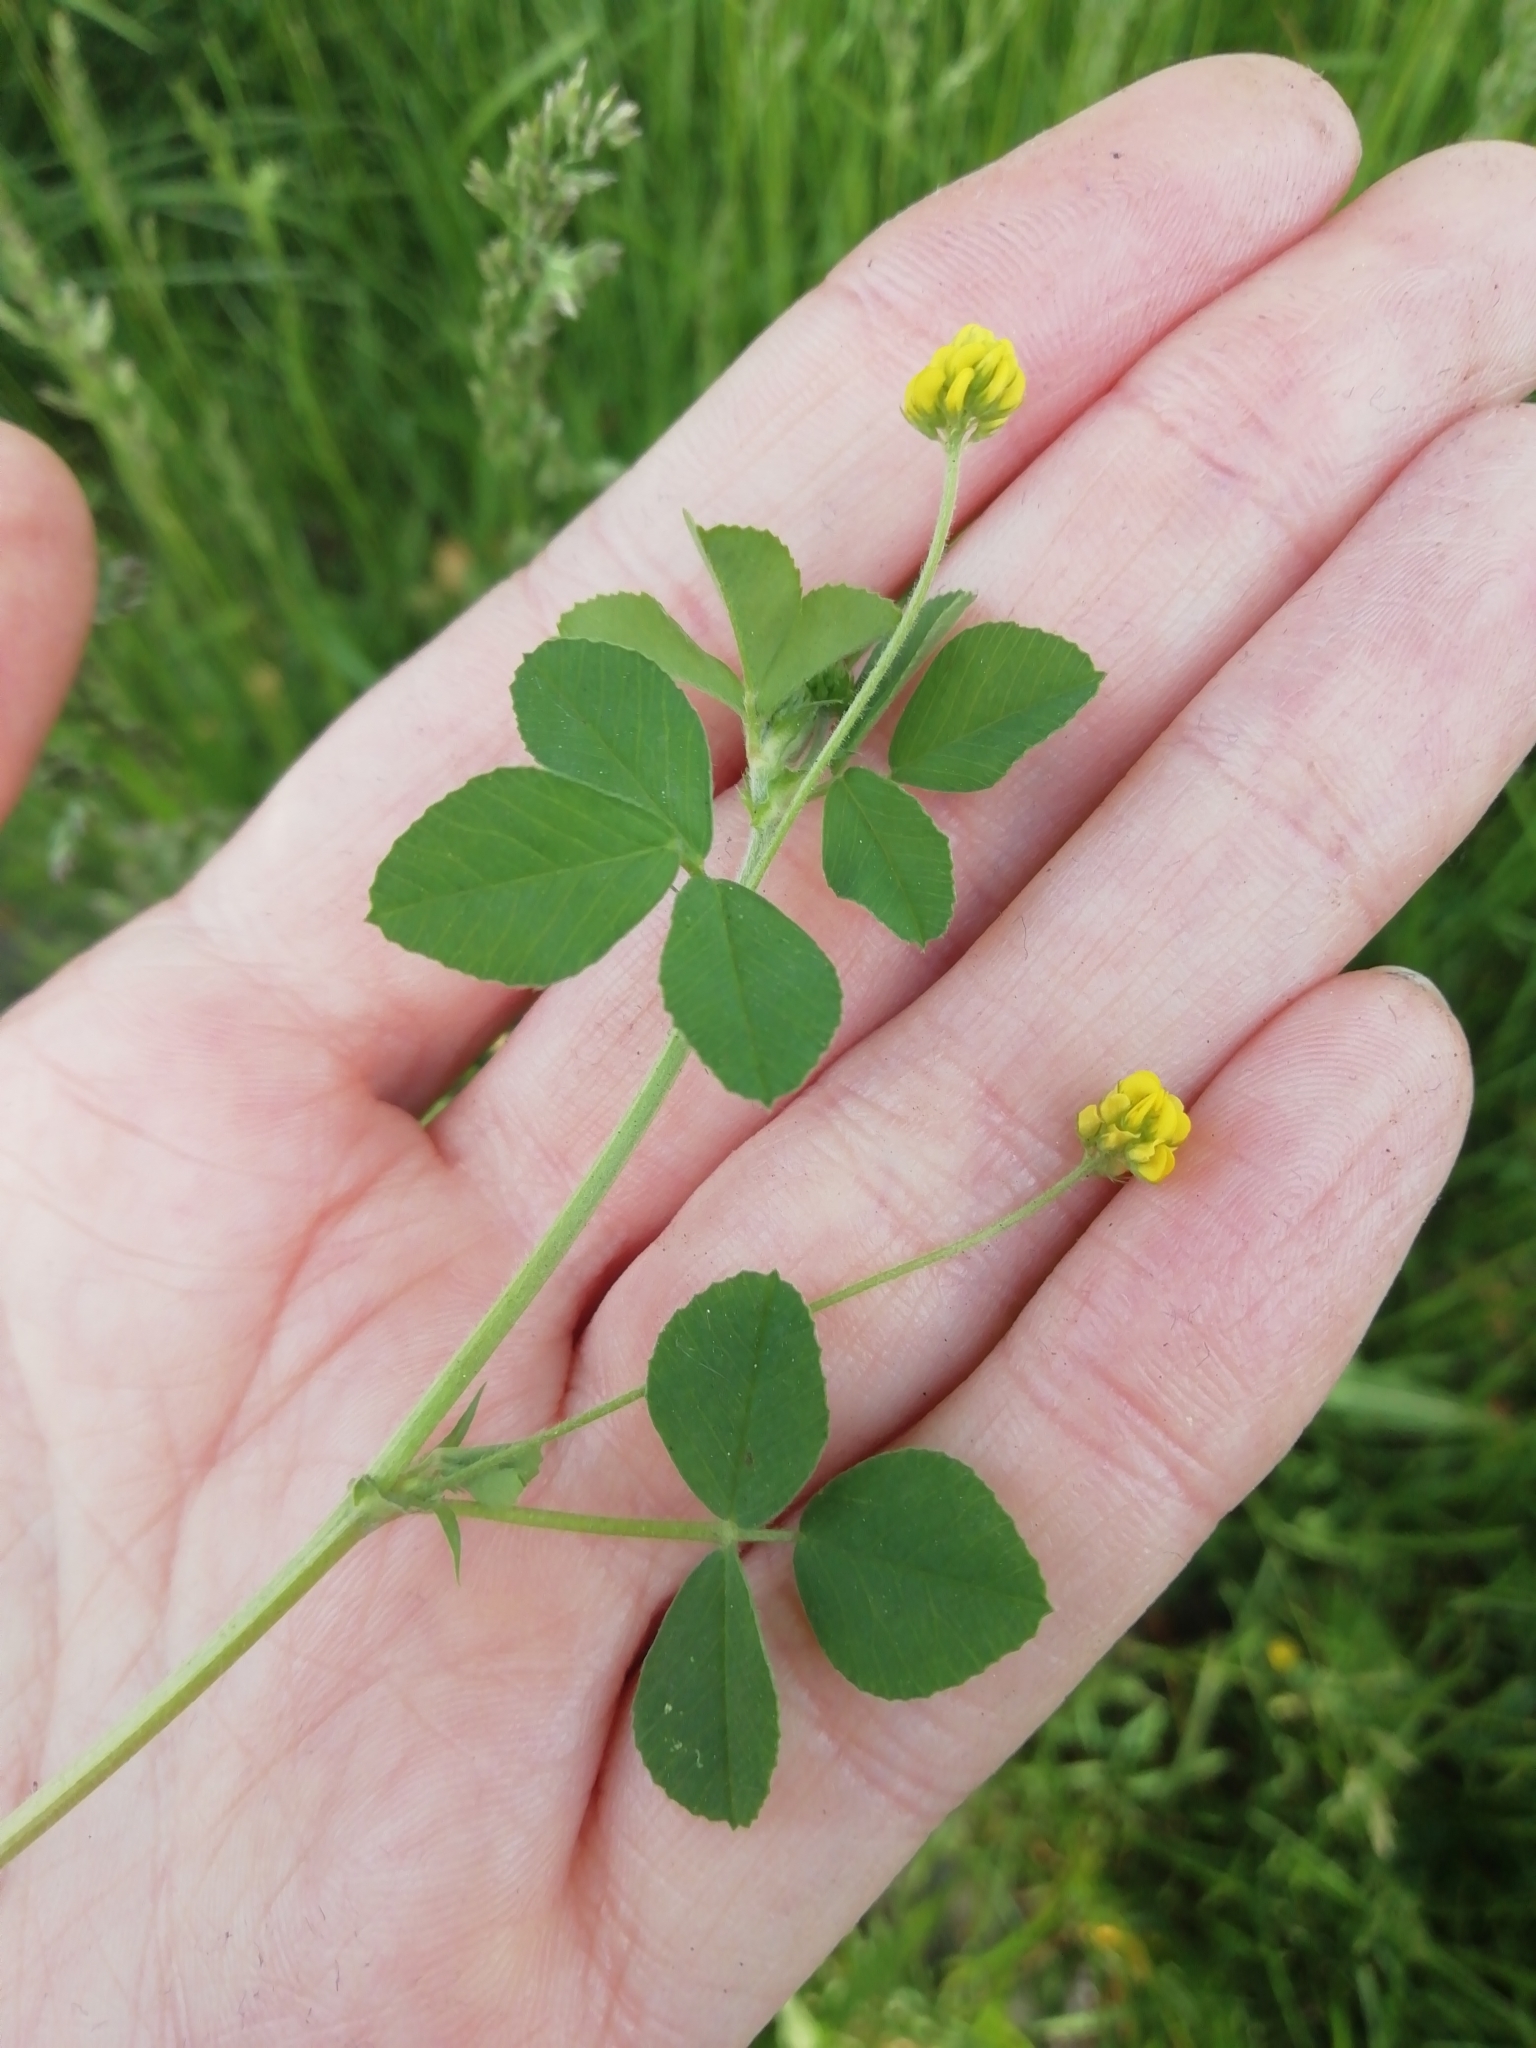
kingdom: Plantae
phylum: Tracheophyta
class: Magnoliopsida
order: Fabales
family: Fabaceae
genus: Medicago
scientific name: Medicago lupulina
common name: Black medick
